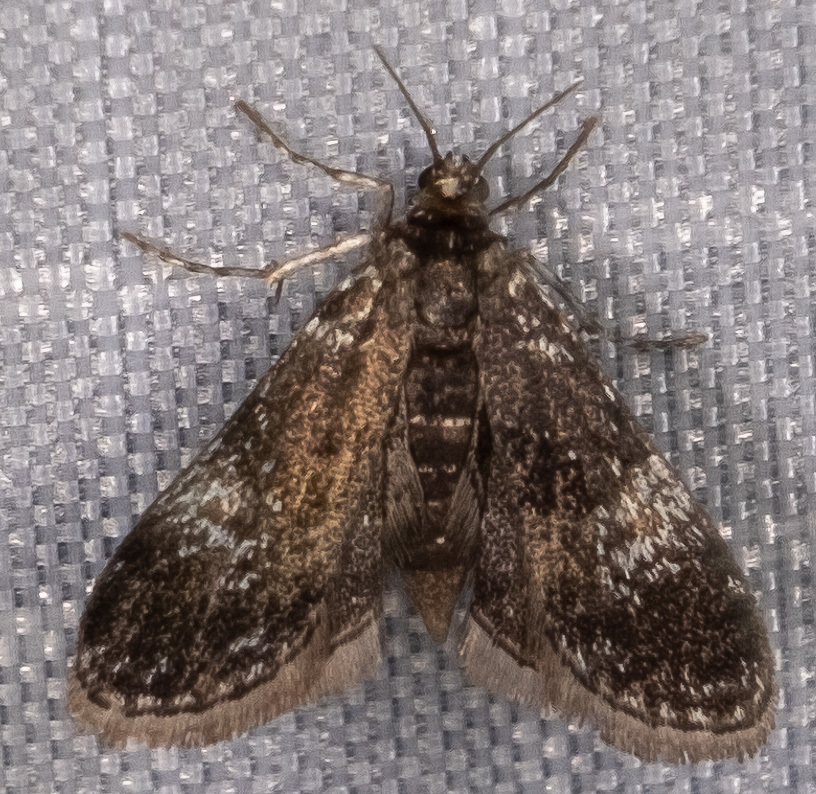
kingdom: Animalia
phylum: Arthropoda
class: Insecta
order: Lepidoptera
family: Crambidae
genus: Elophila
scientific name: Elophila tinealis
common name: Black duckweed moth
